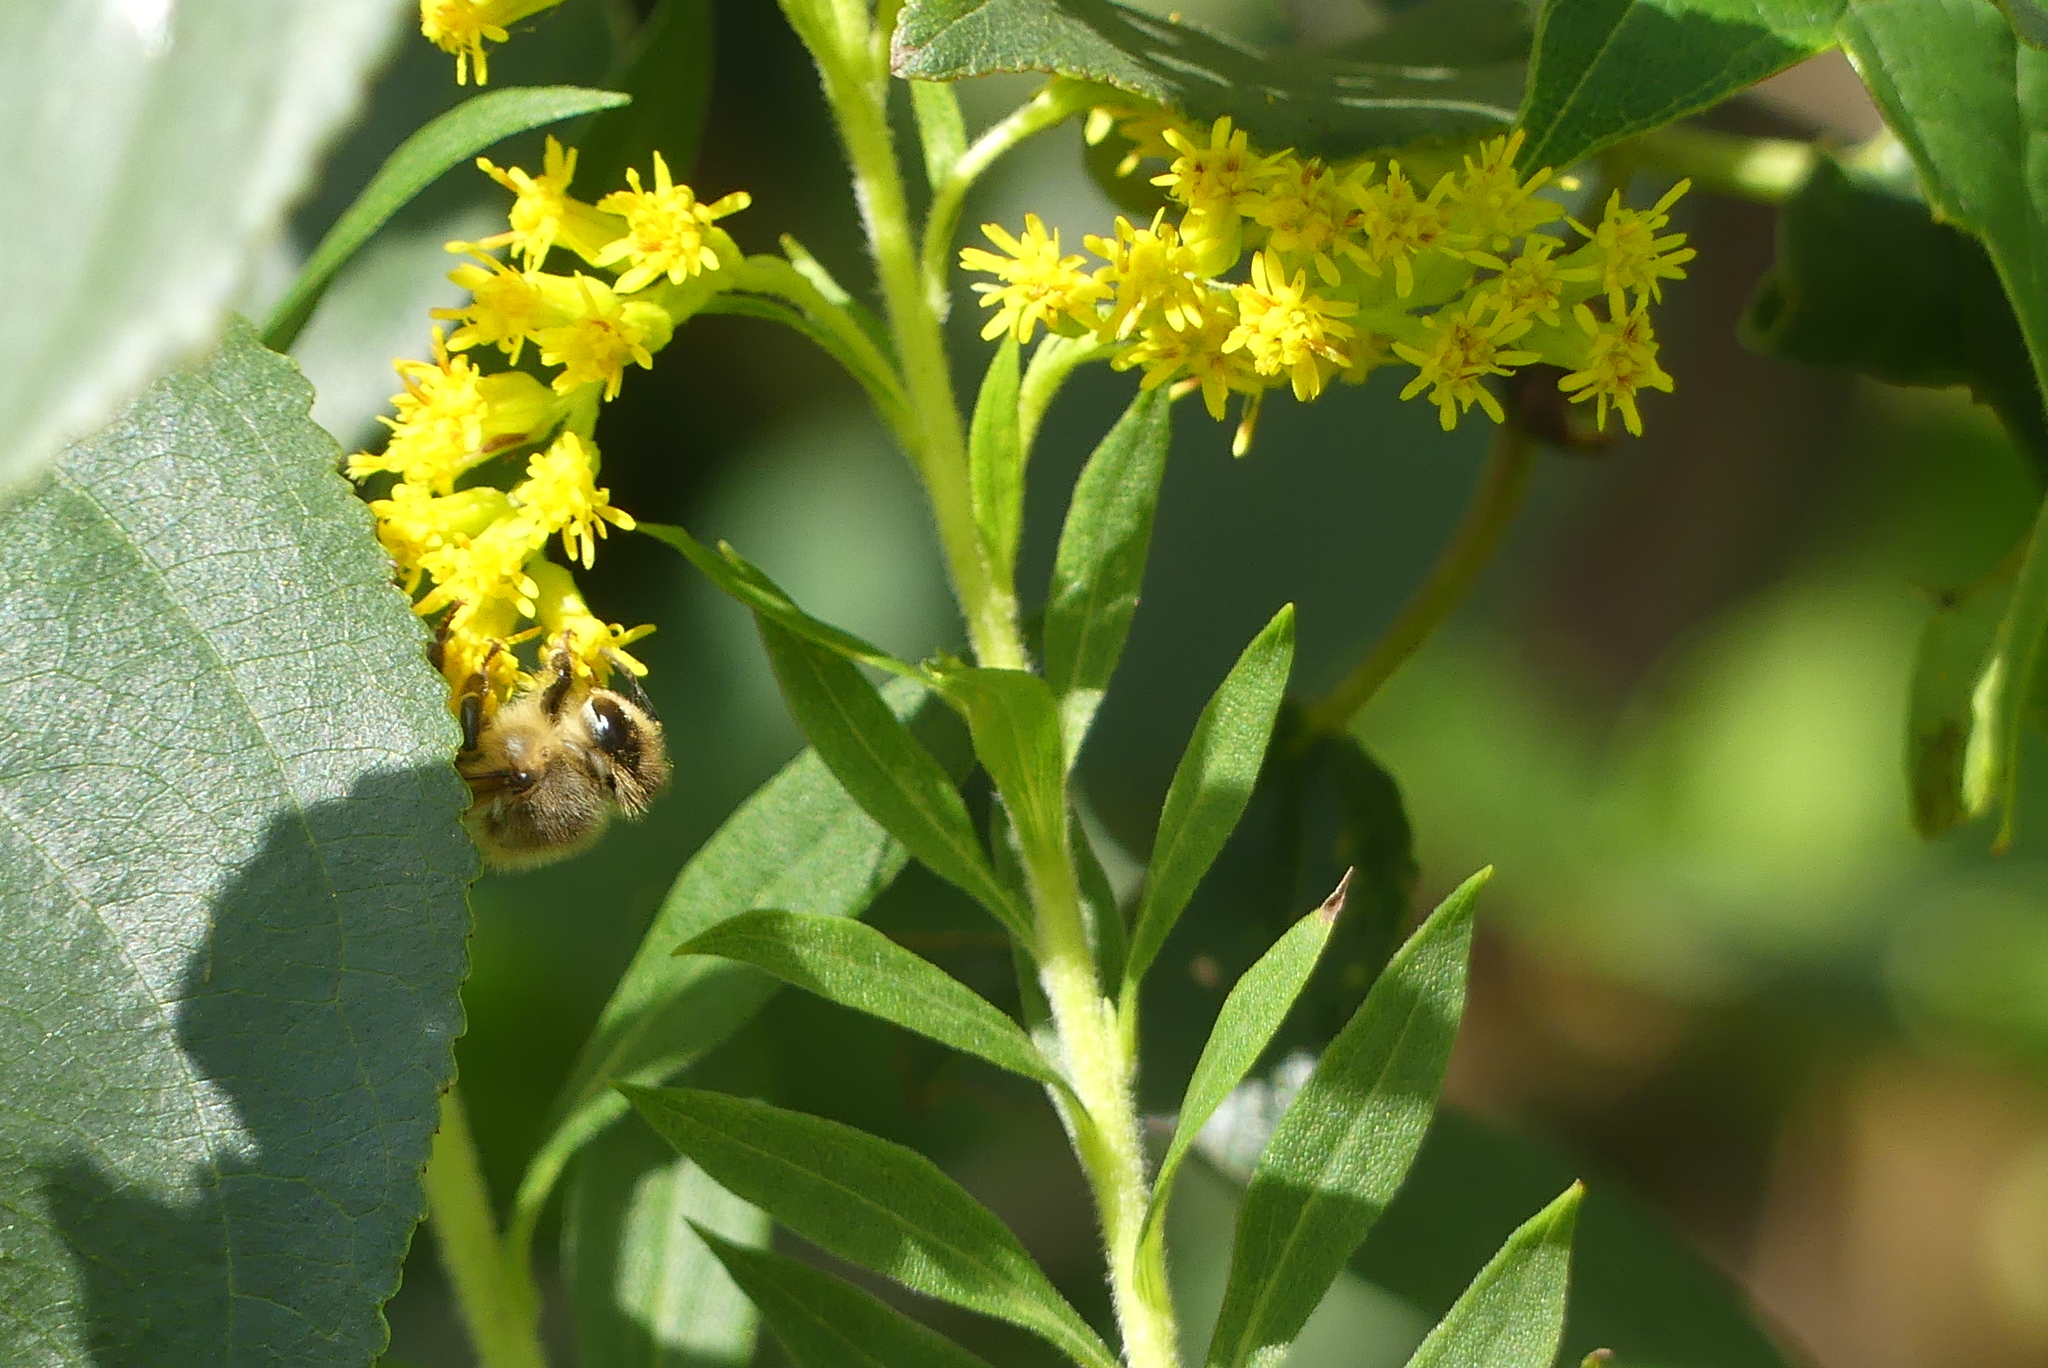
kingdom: Animalia
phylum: Arthropoda
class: Insecta
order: Hymenoptera
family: Apidae
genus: Apis
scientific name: Apis mellifera
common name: Honey bee
